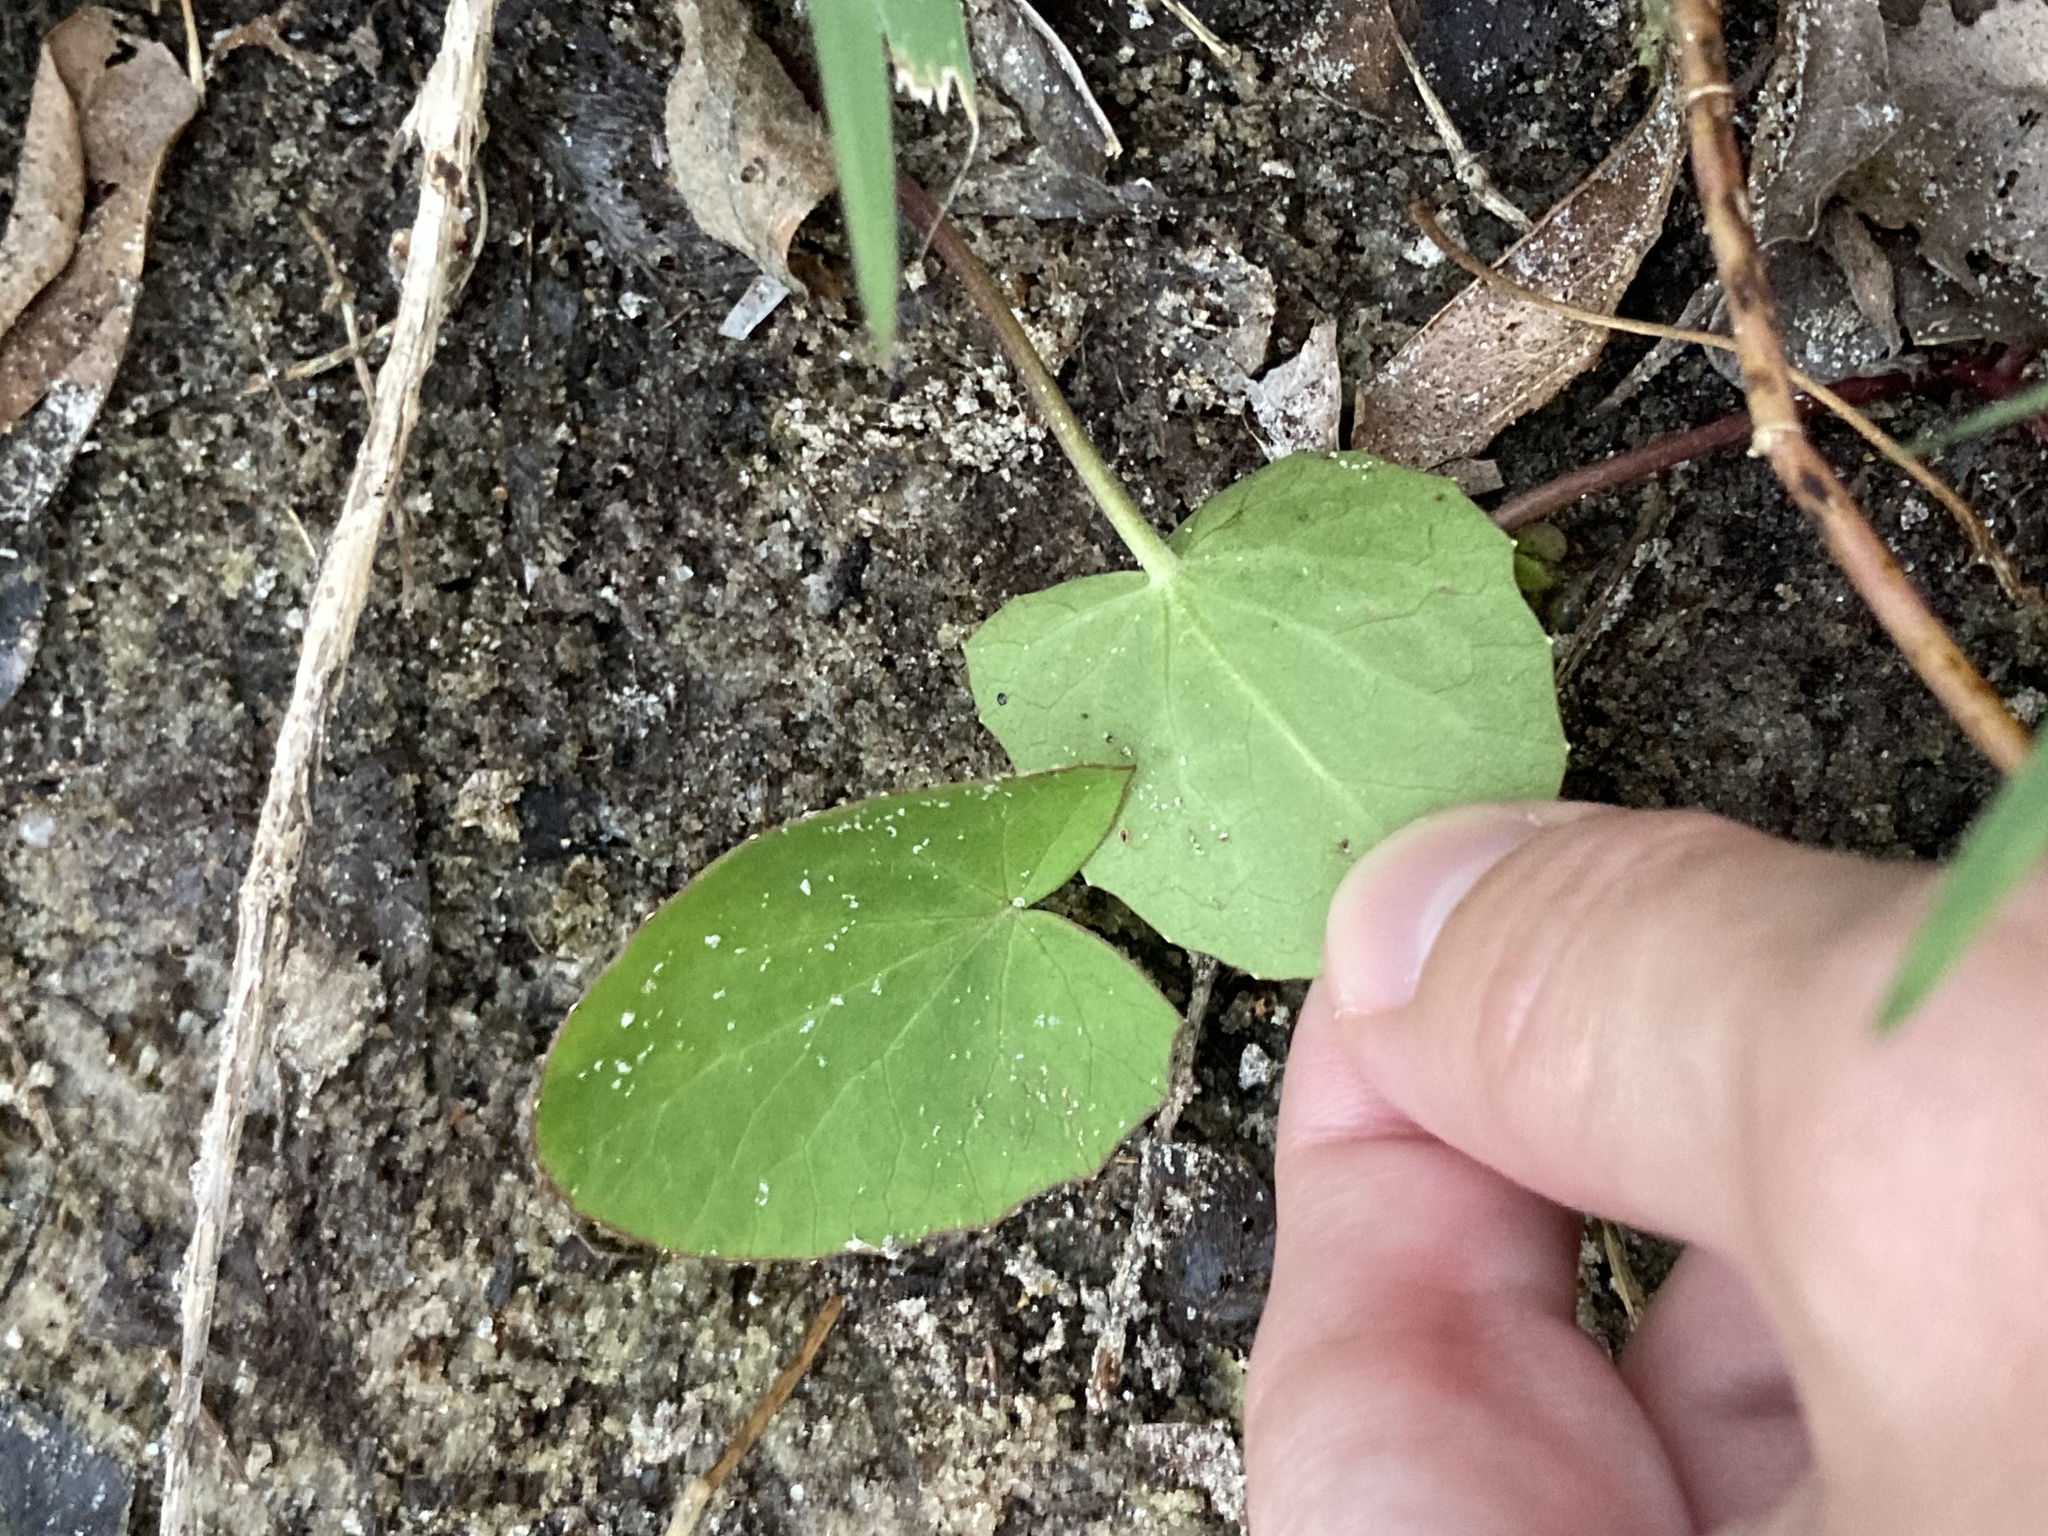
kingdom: Plantae
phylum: Tracheophyta
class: Magnoliopsida
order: Apiales
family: Apiaceae
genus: Centella
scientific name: Centella erecta
